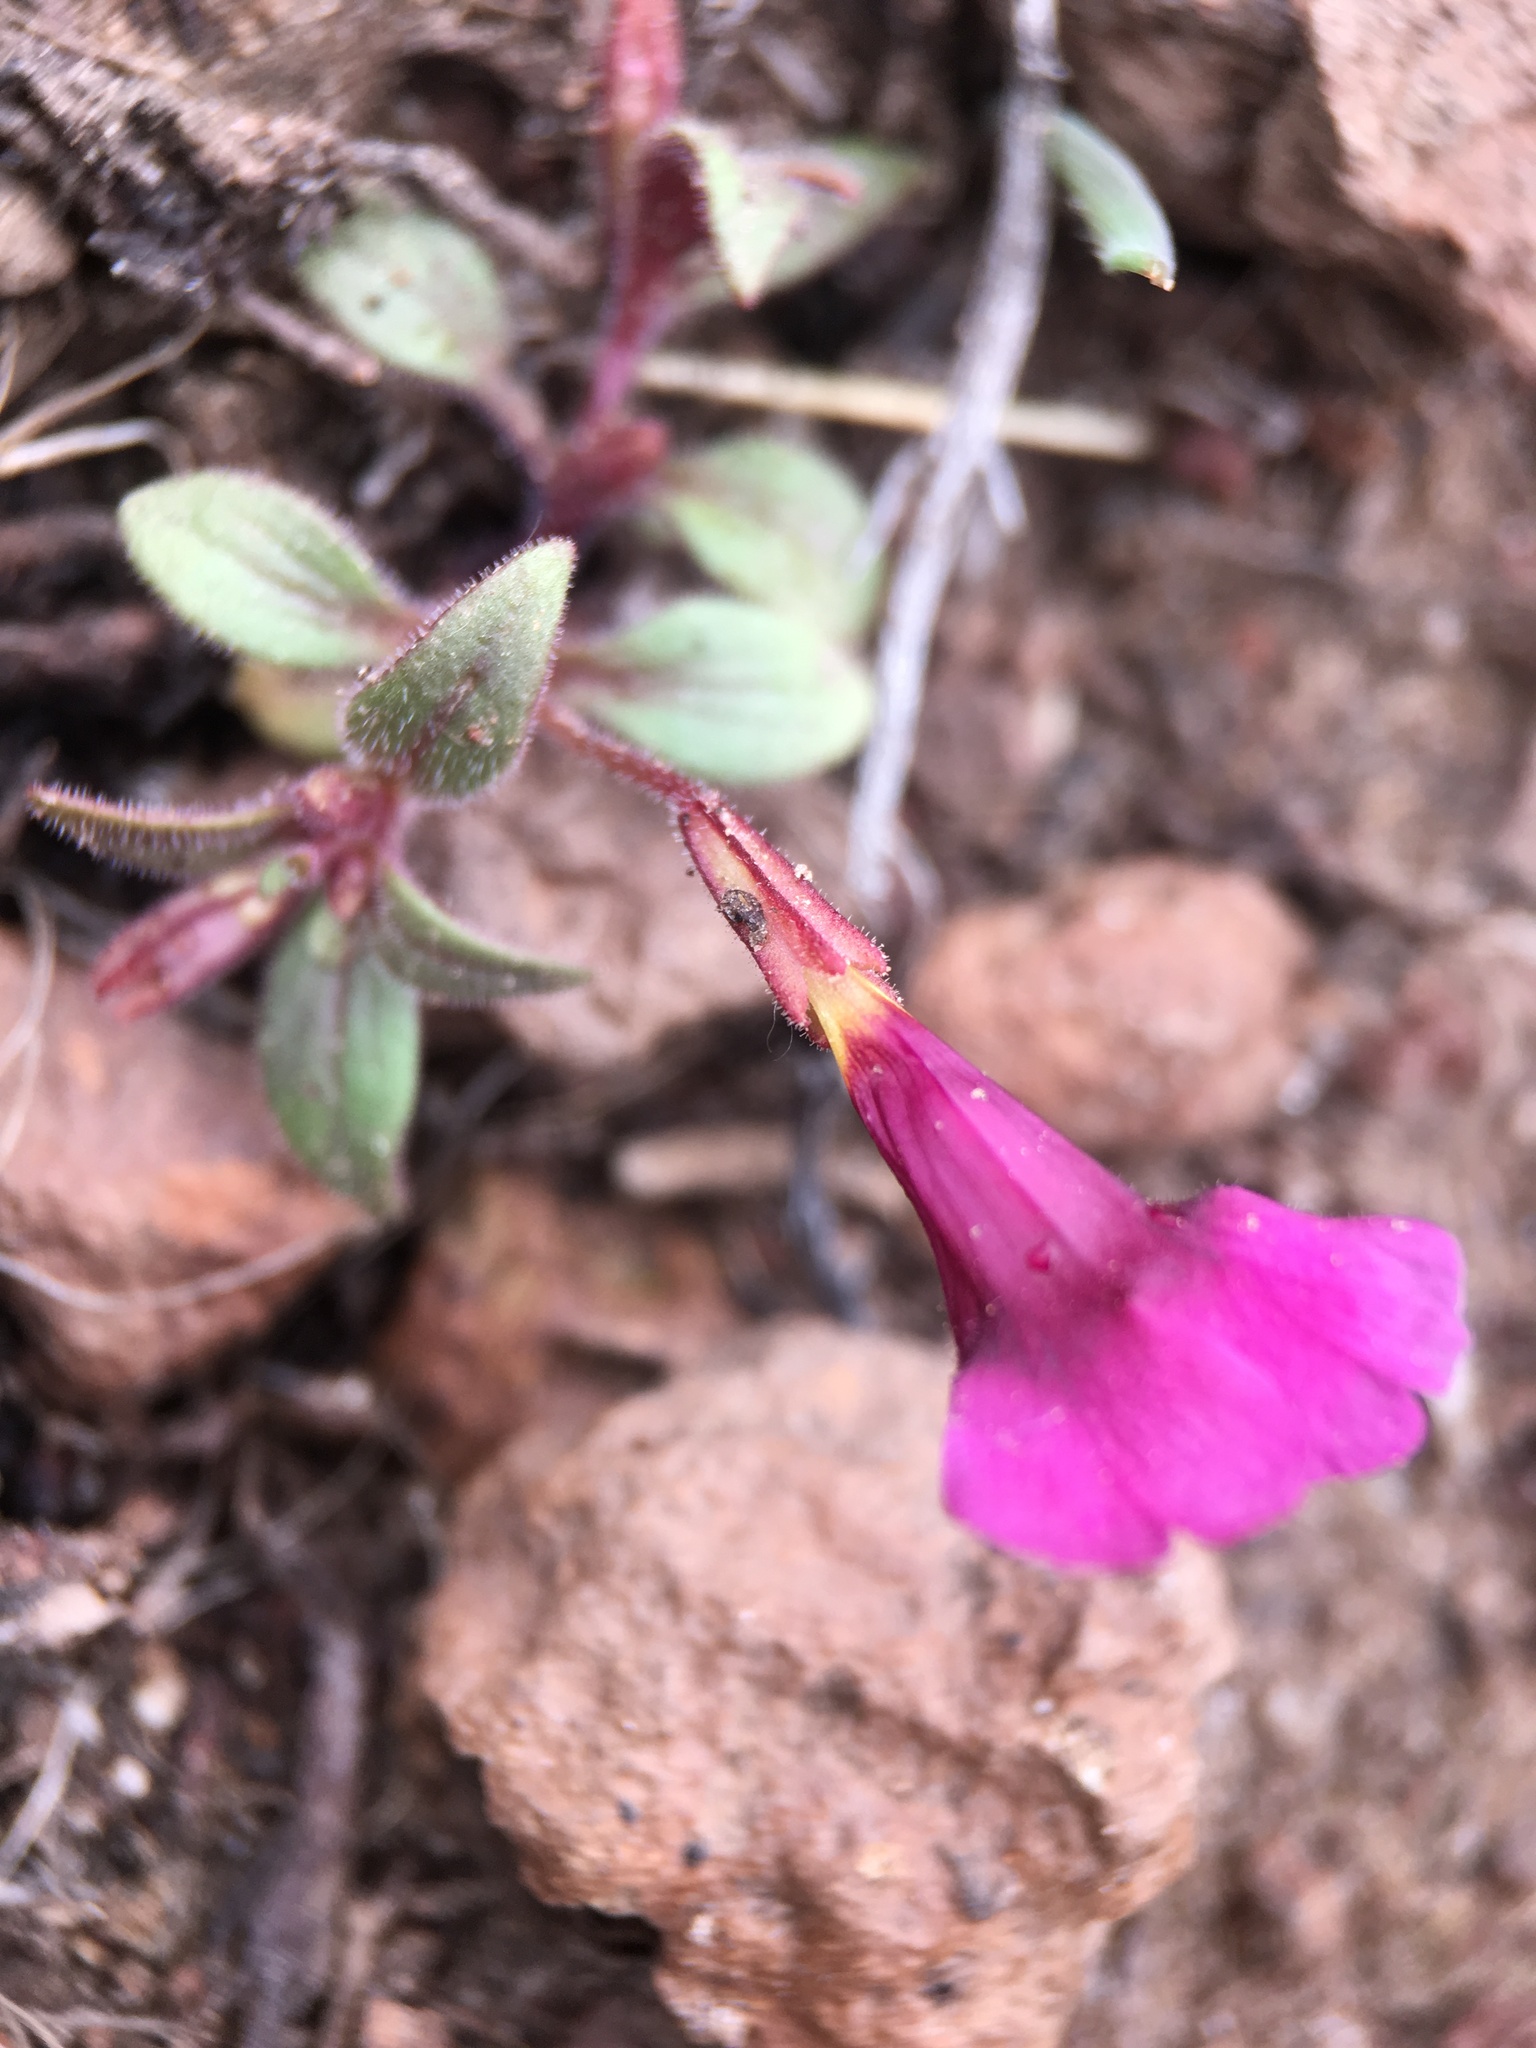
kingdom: Plantae
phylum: Tracheophyta
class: Magnoliopsida
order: Lamiales
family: Phrymaceae
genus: Erythranthe
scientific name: Erythranthe discolor
